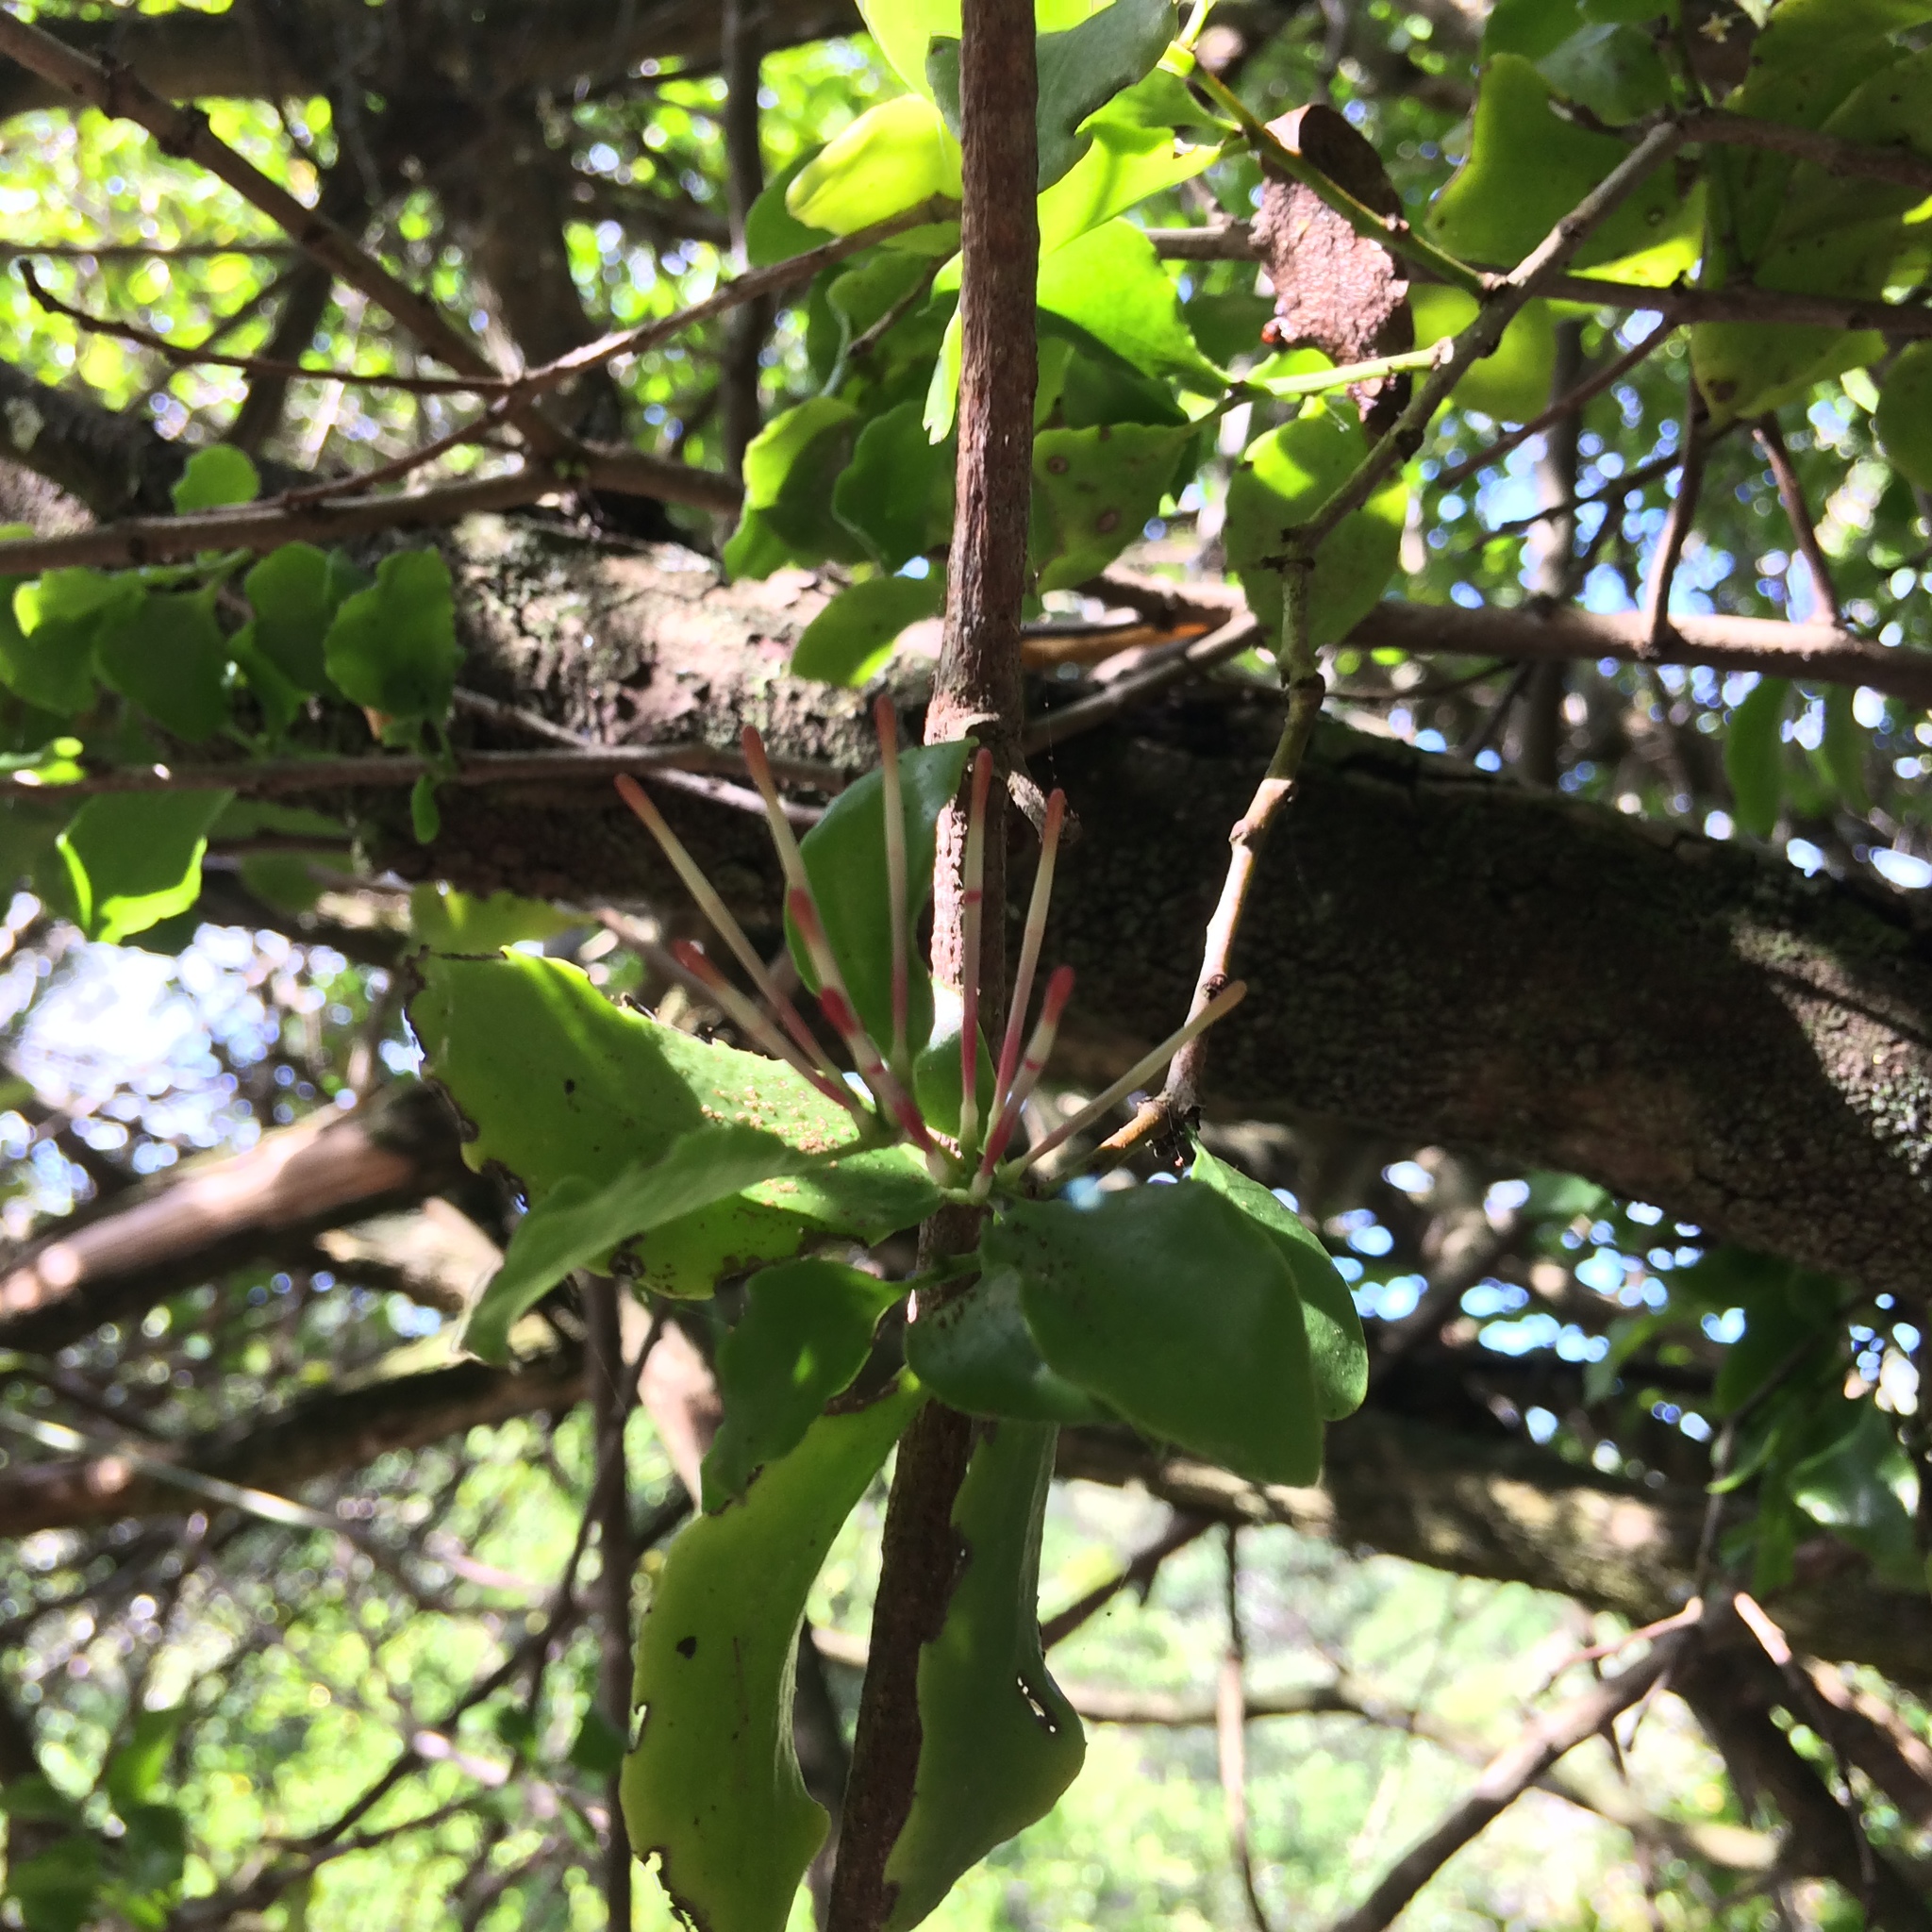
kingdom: Plantae
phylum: Tracheophyta
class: Magnoliopsida
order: Santalales
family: Loranthaceae
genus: Oncocalyx
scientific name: Oncocalyx quinquenervius
